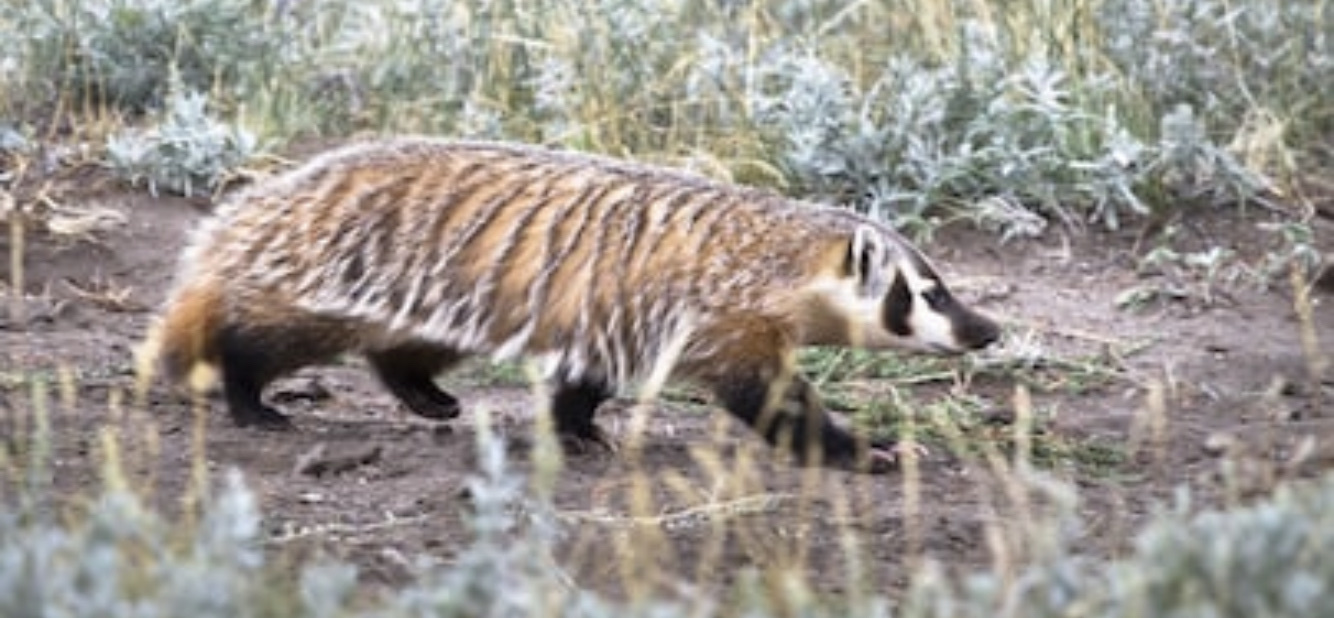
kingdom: Animalia
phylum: Chordata
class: Mammalia
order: Carnivora
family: Mustelidae
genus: Taxidea
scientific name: Taxidea taxus
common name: American badger
